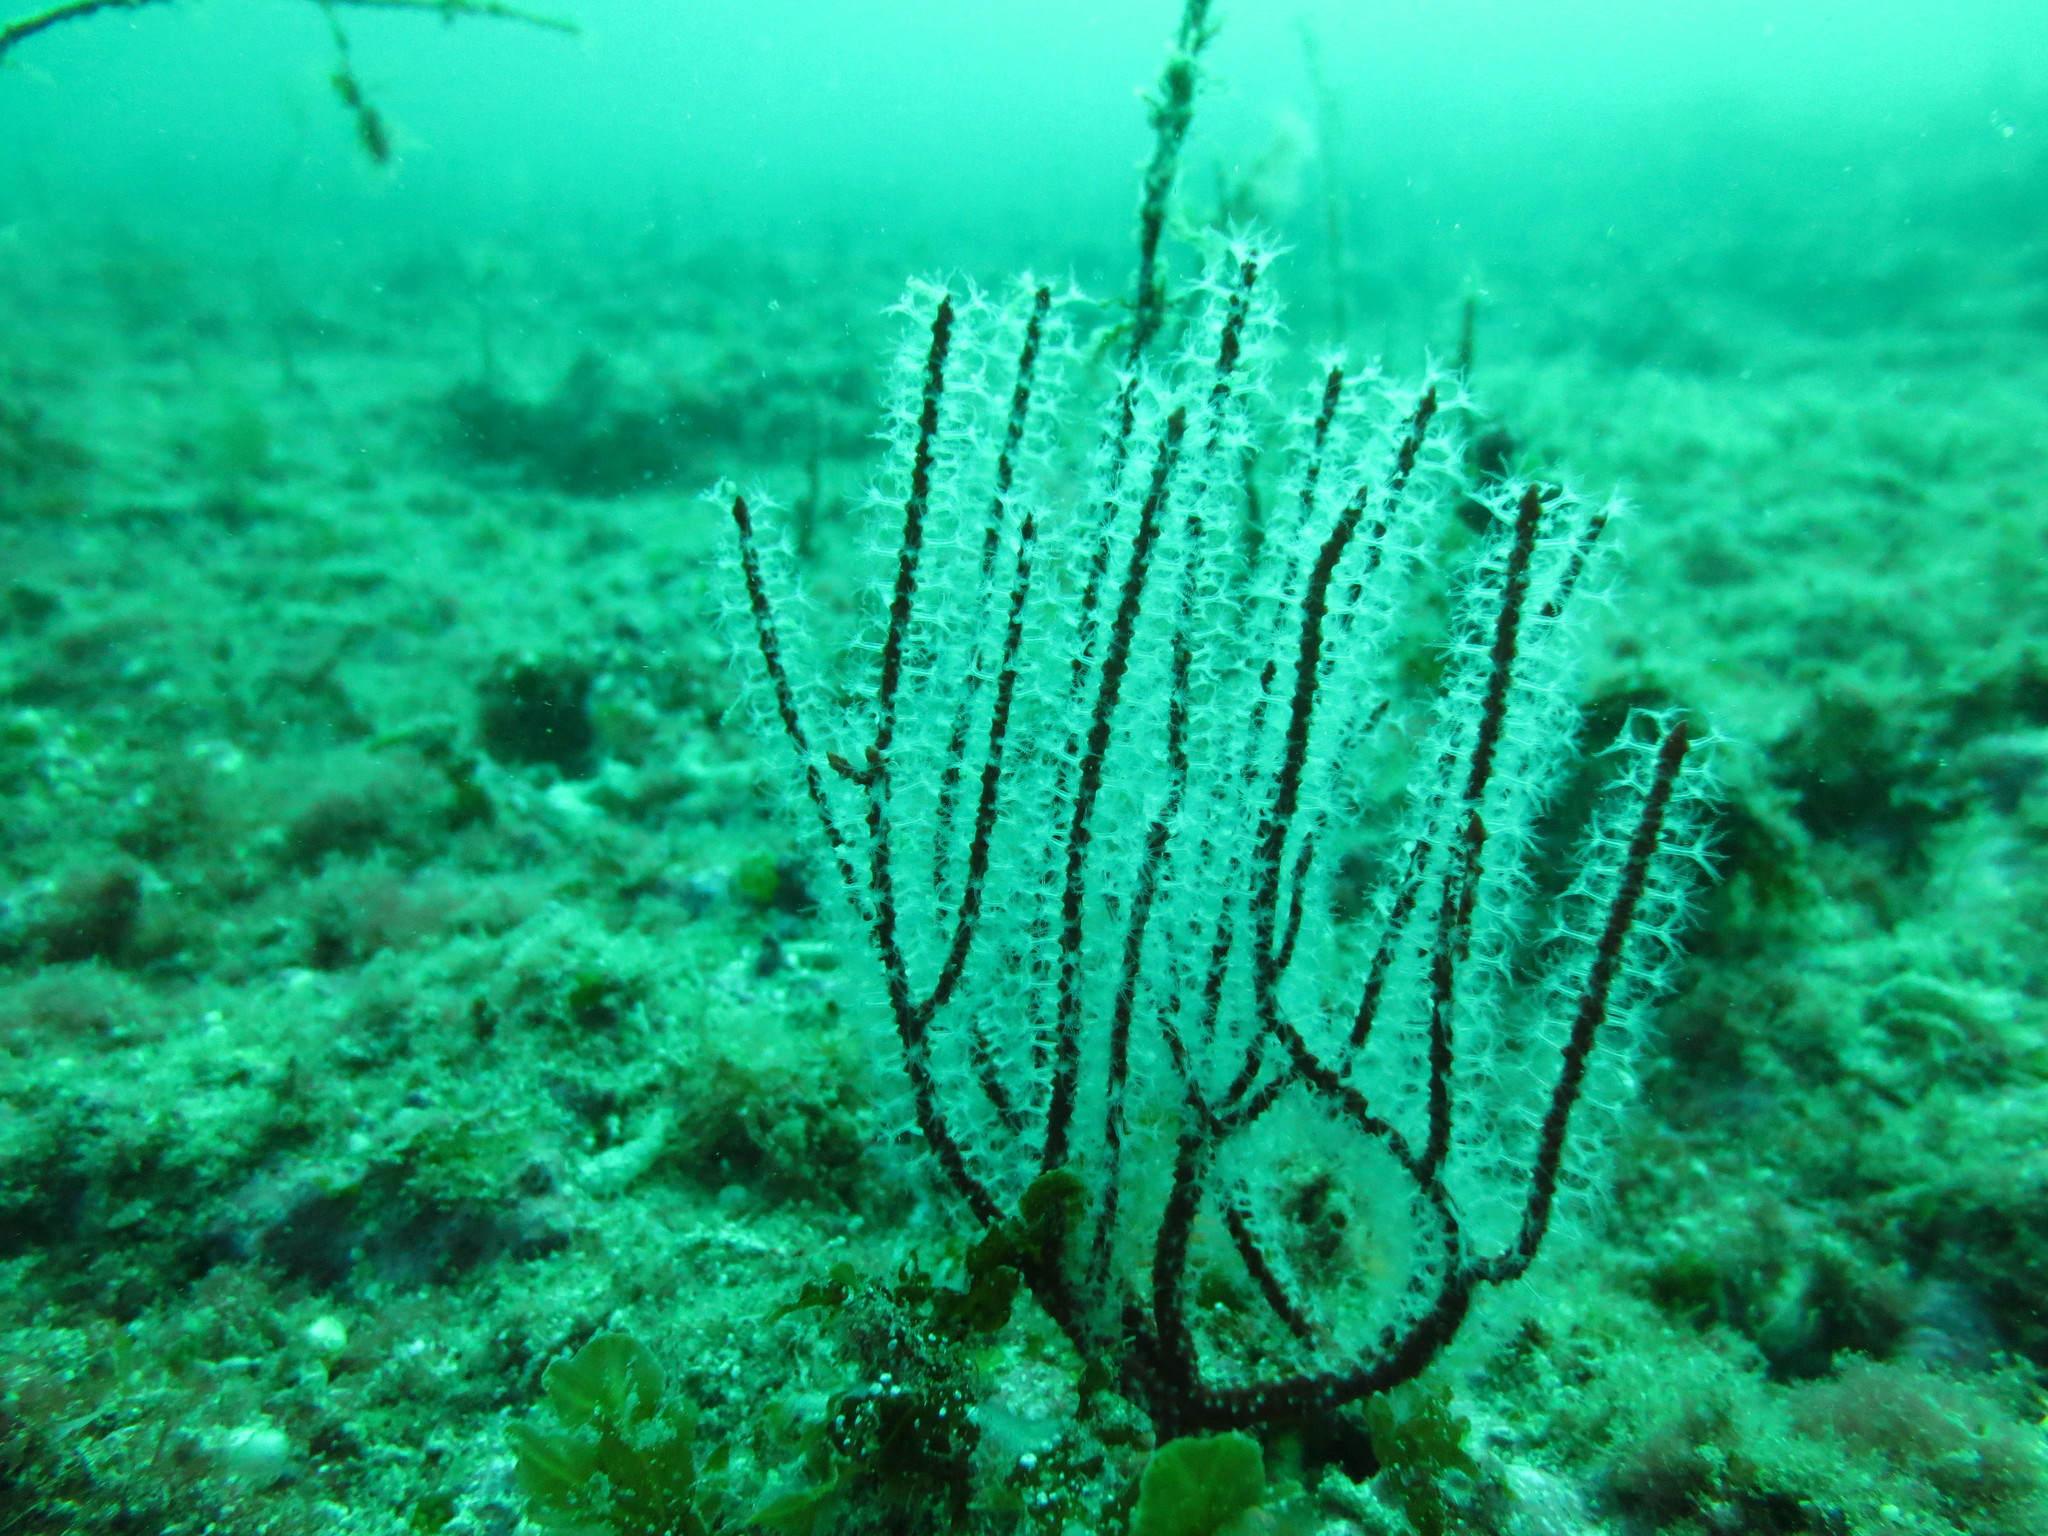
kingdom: Animalia
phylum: Cnidaria
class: Anthozoa
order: Malacalcyonacea
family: Gorgoniidae
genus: Leptogorgia
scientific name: Leptogorgia chilensis
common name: Carmine sea spray
